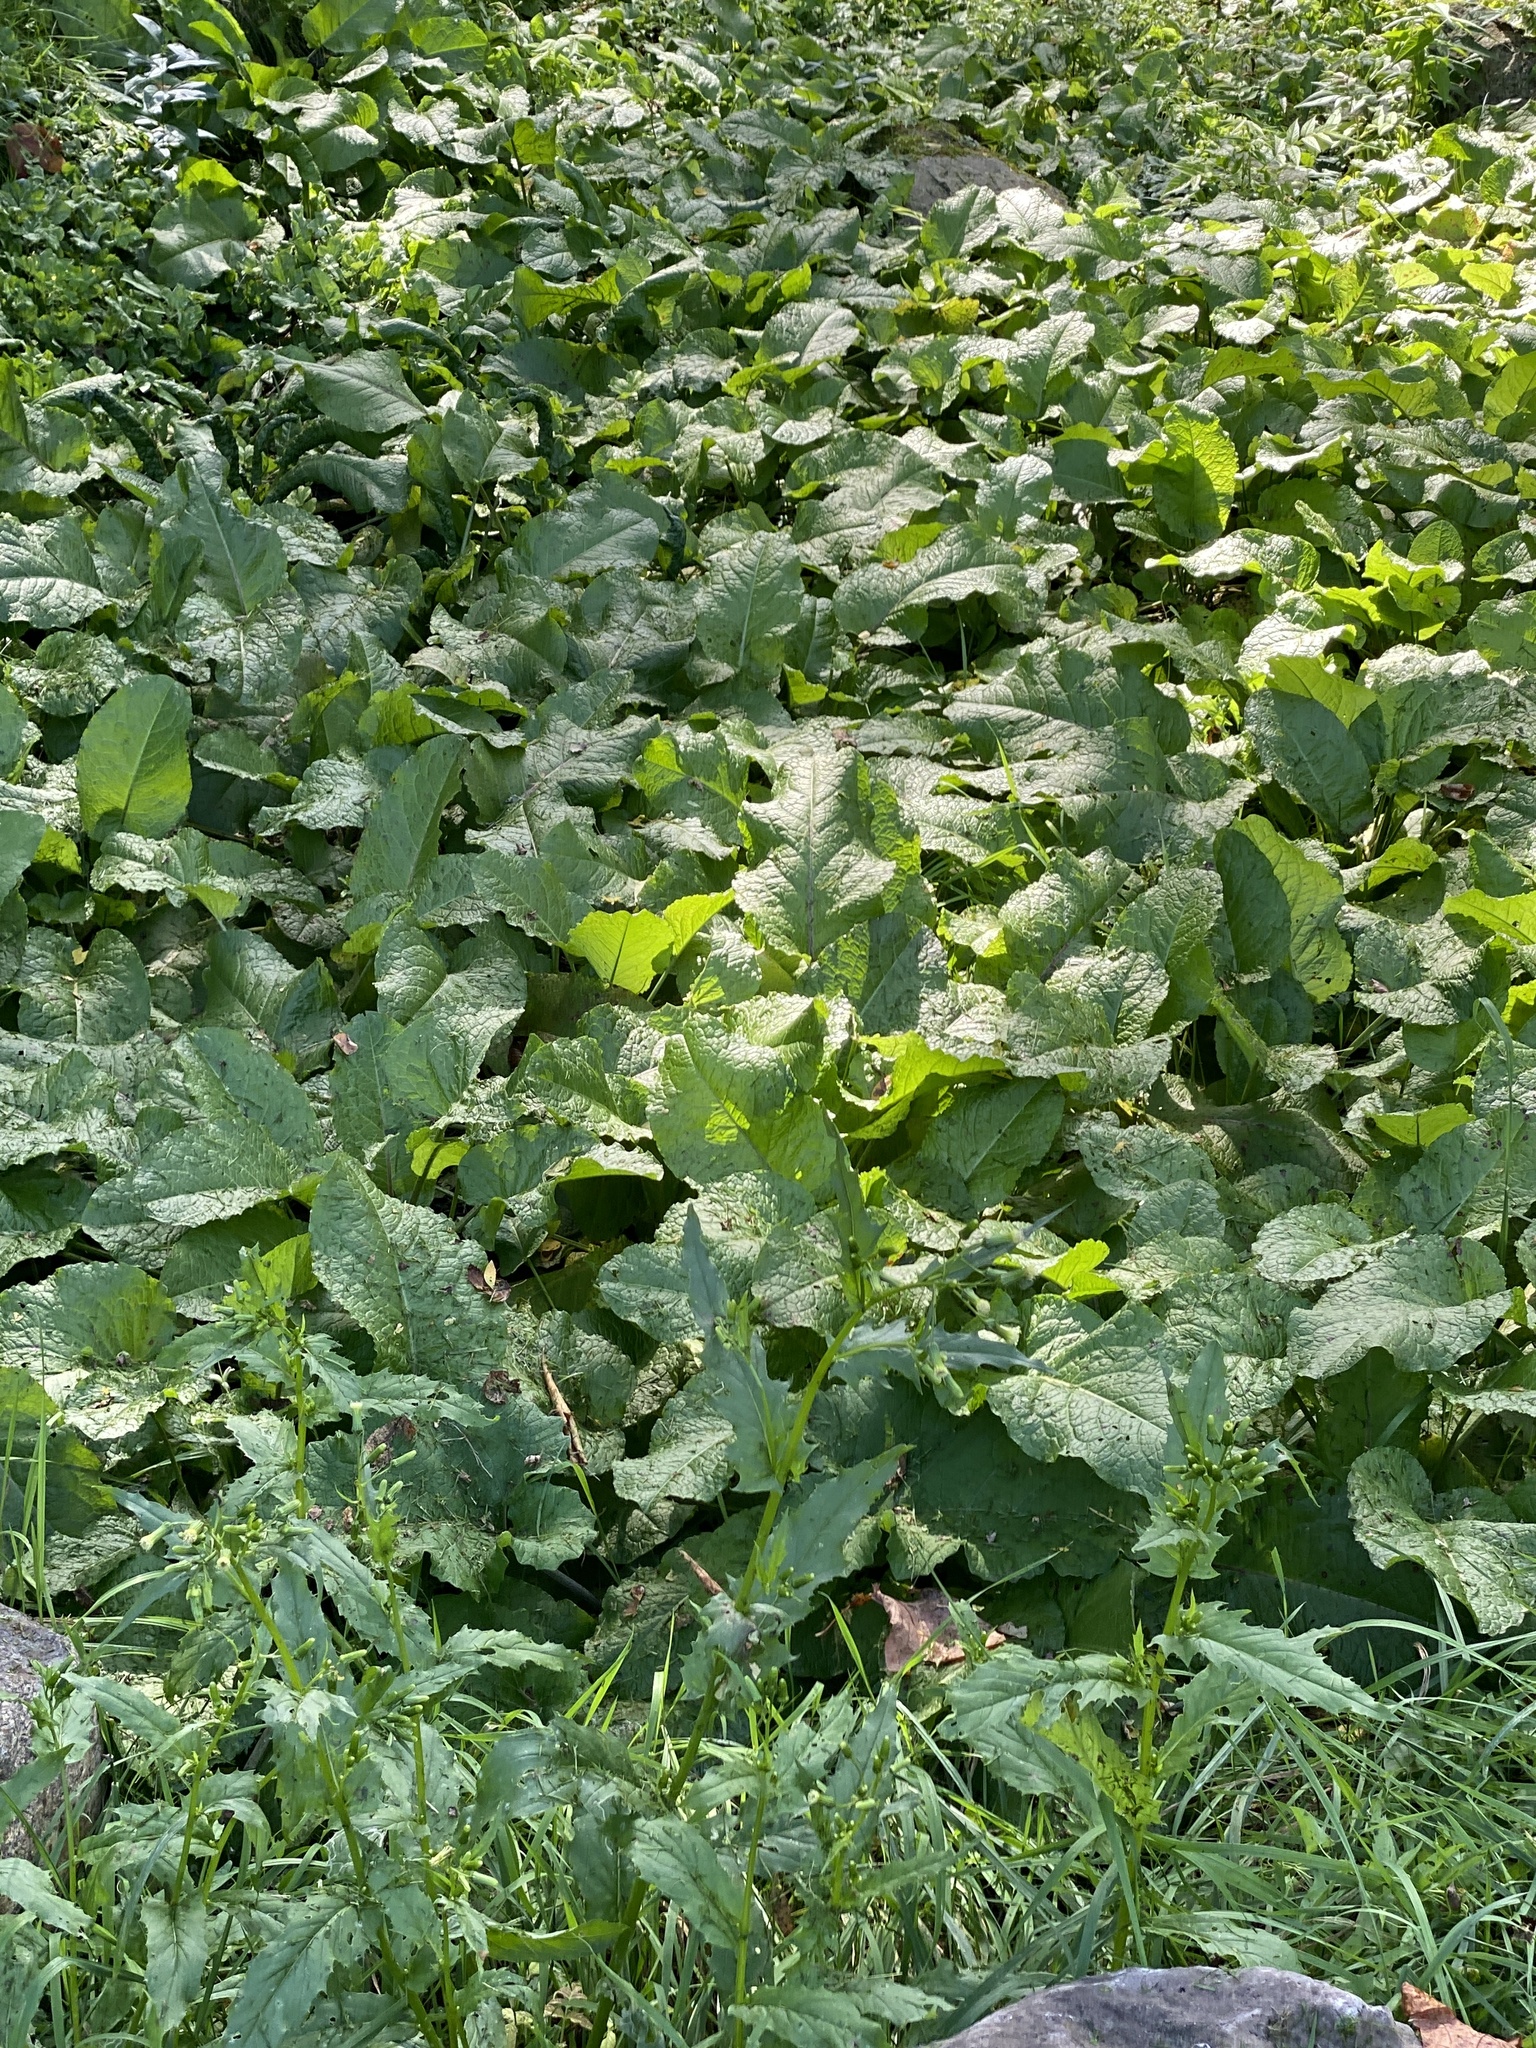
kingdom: Plantae
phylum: Tracheophyta
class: Magnoliopsida
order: Caryophyllales
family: Polygonaceae
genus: Rumex
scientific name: Rumex obtusifolius
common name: Bitter dock
